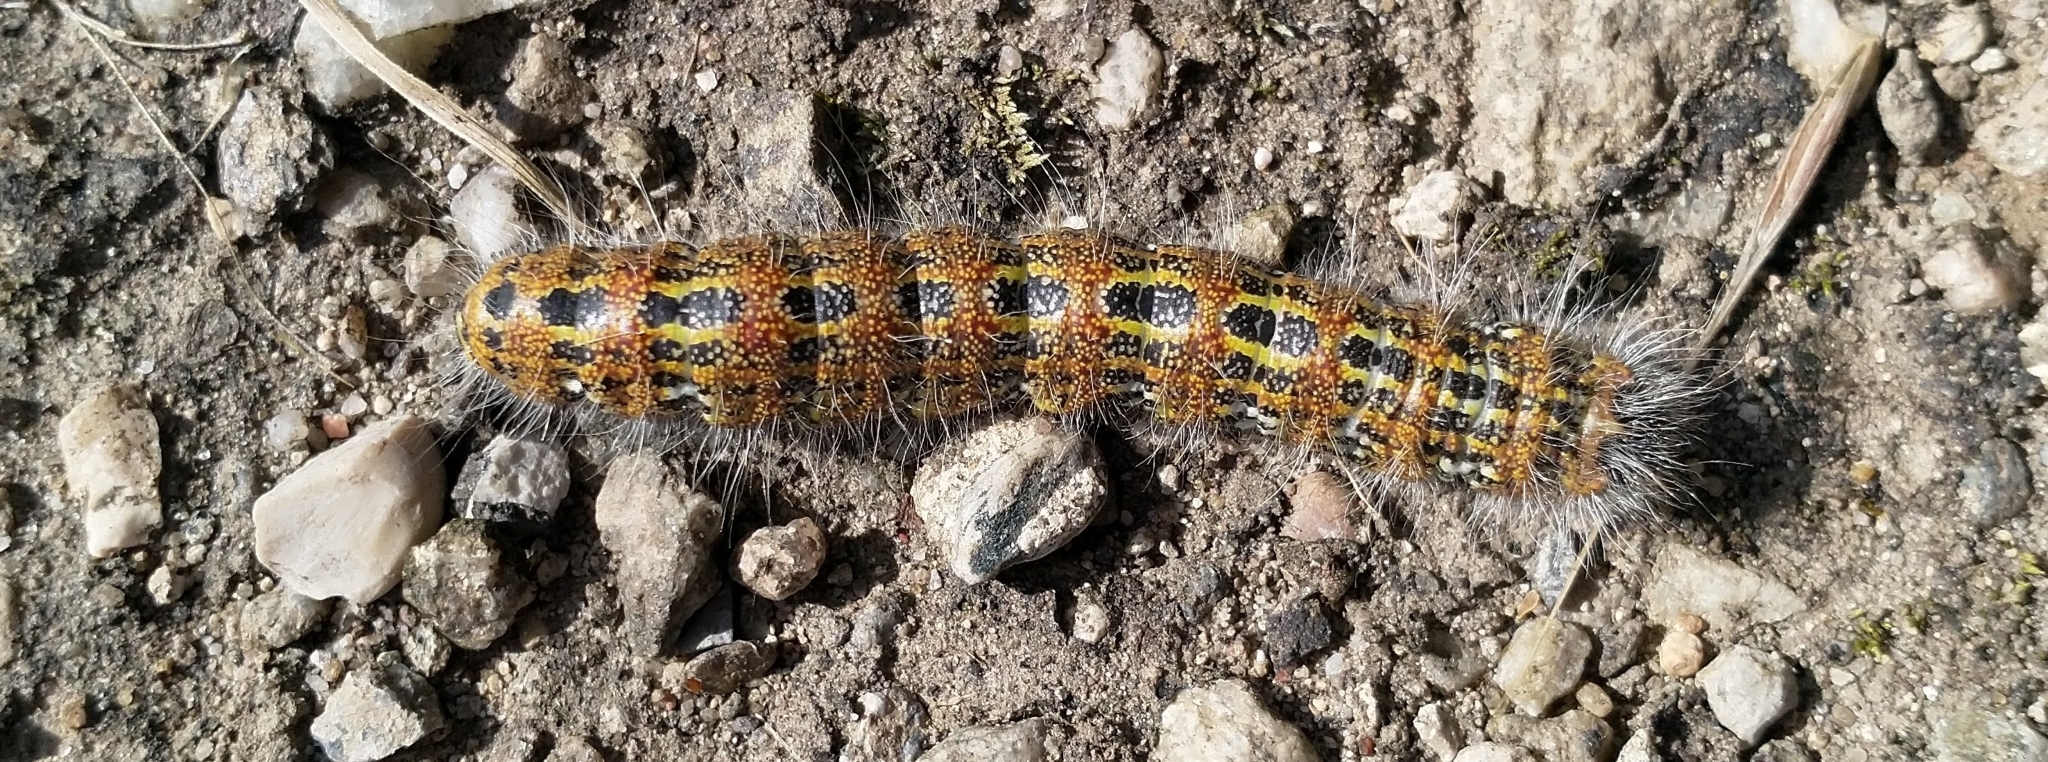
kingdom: Animalia
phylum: Arthropoda
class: Insecta
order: Lepidoptera
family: Notodontidae
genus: Phalera
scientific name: Phalera bucephala
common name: Buff-tip
